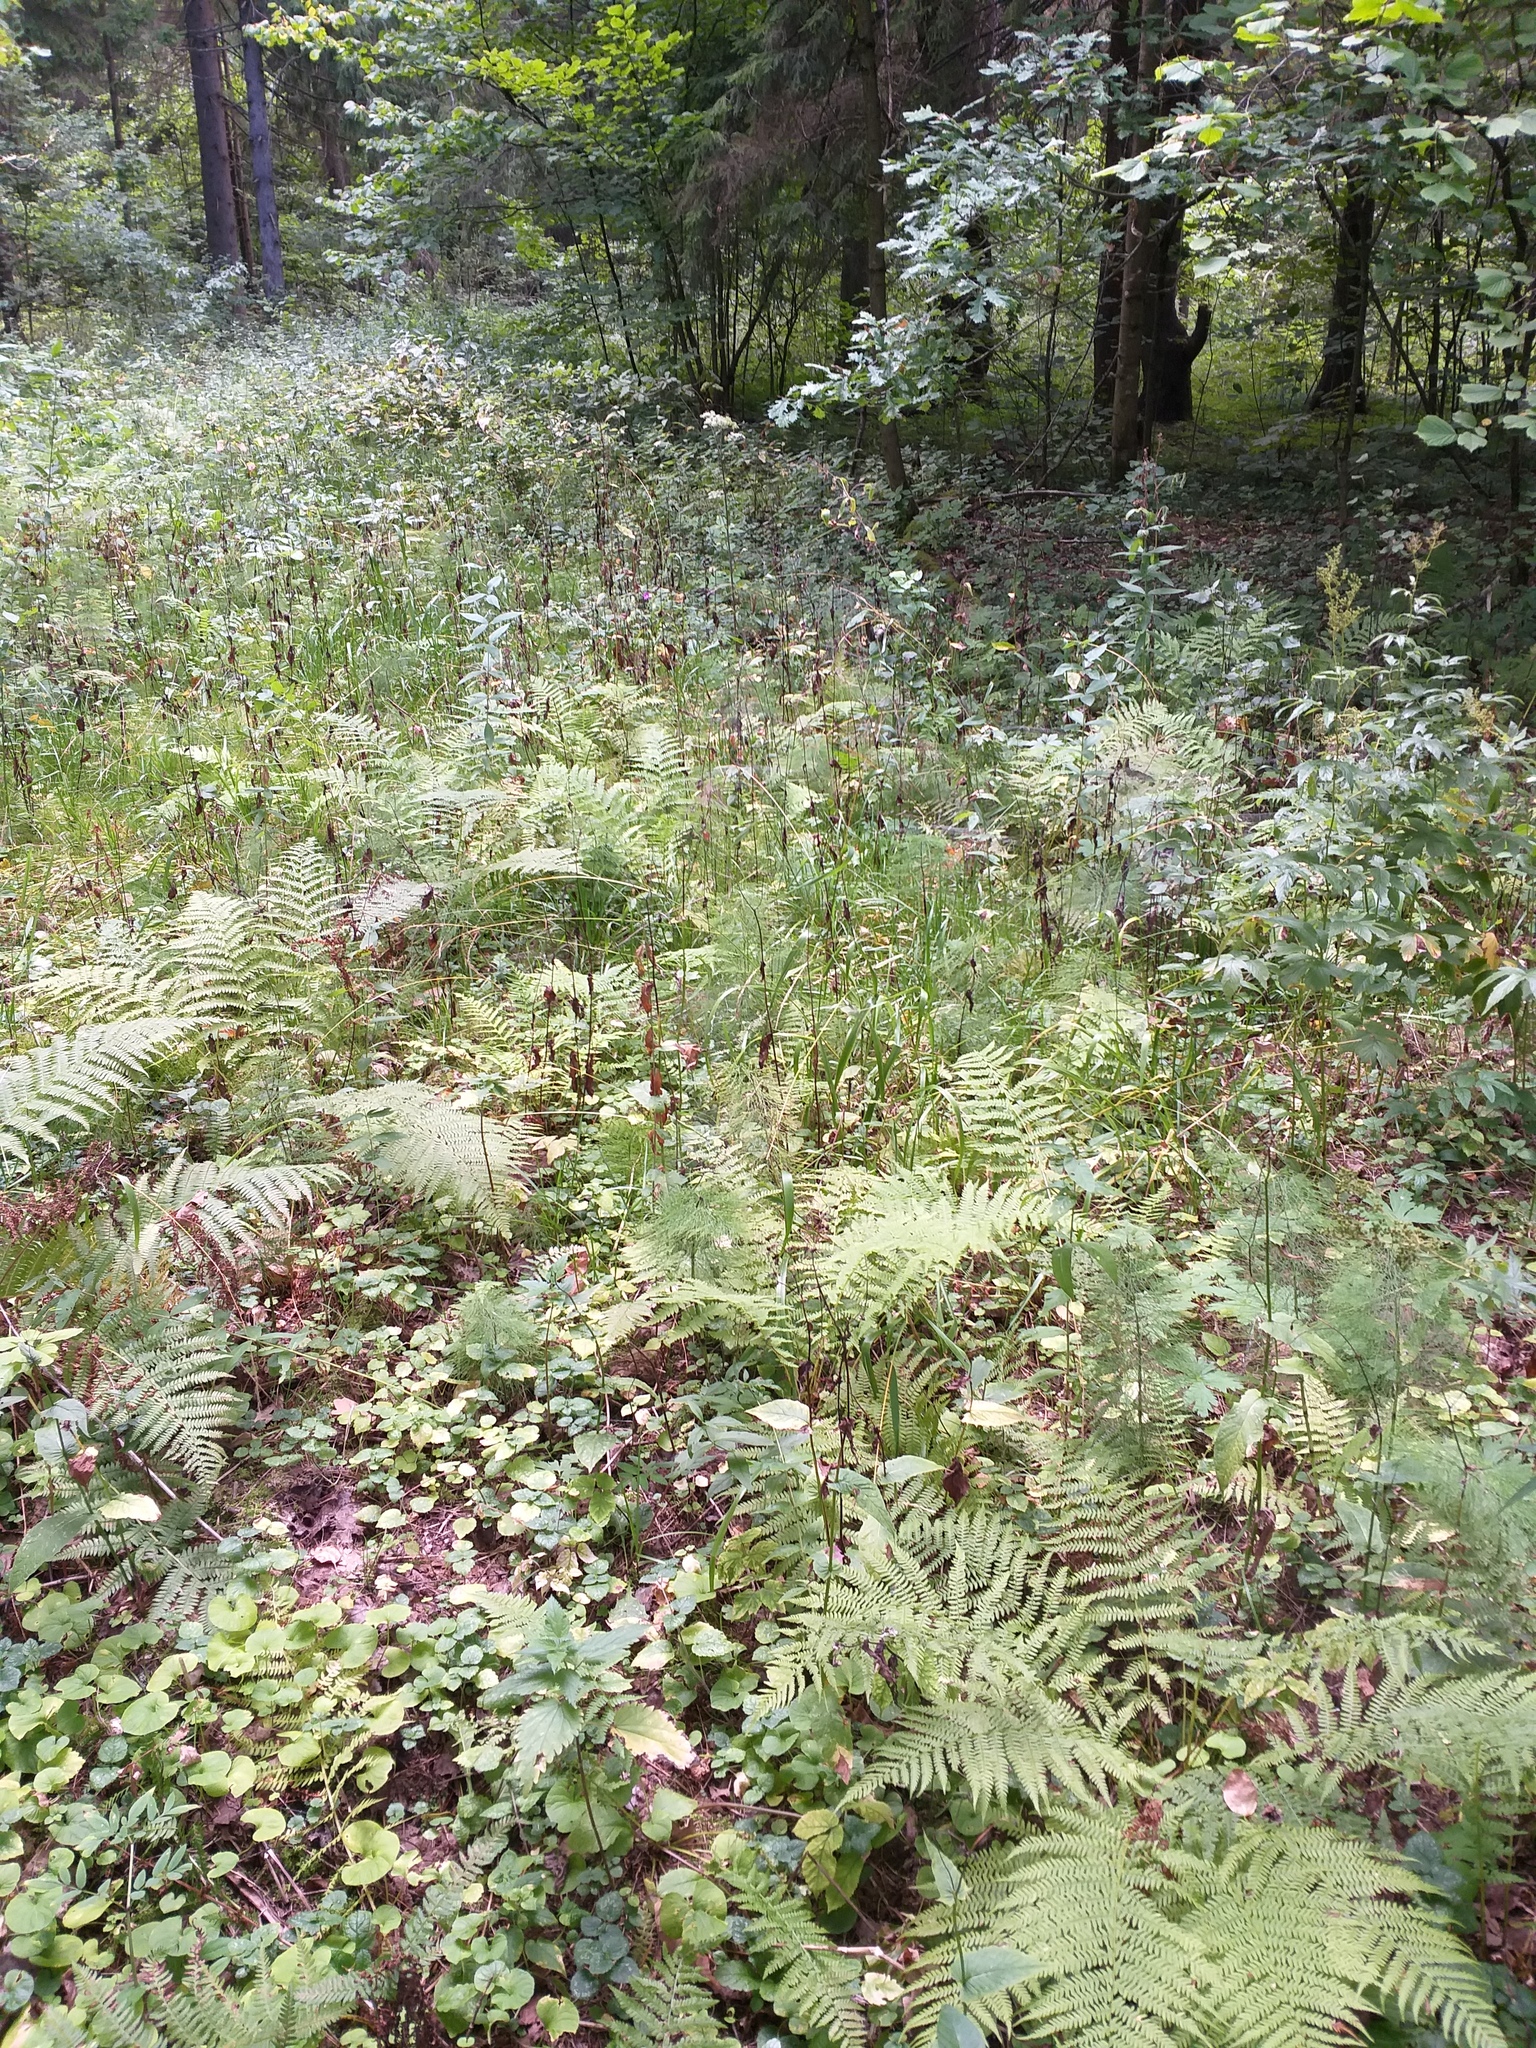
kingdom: Plantae
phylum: Tracheophyta
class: Magnoliopsida
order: Asterales
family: Asteraceae
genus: Crepis
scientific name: Crepis paludosa
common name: Marsh hawk's-beard
